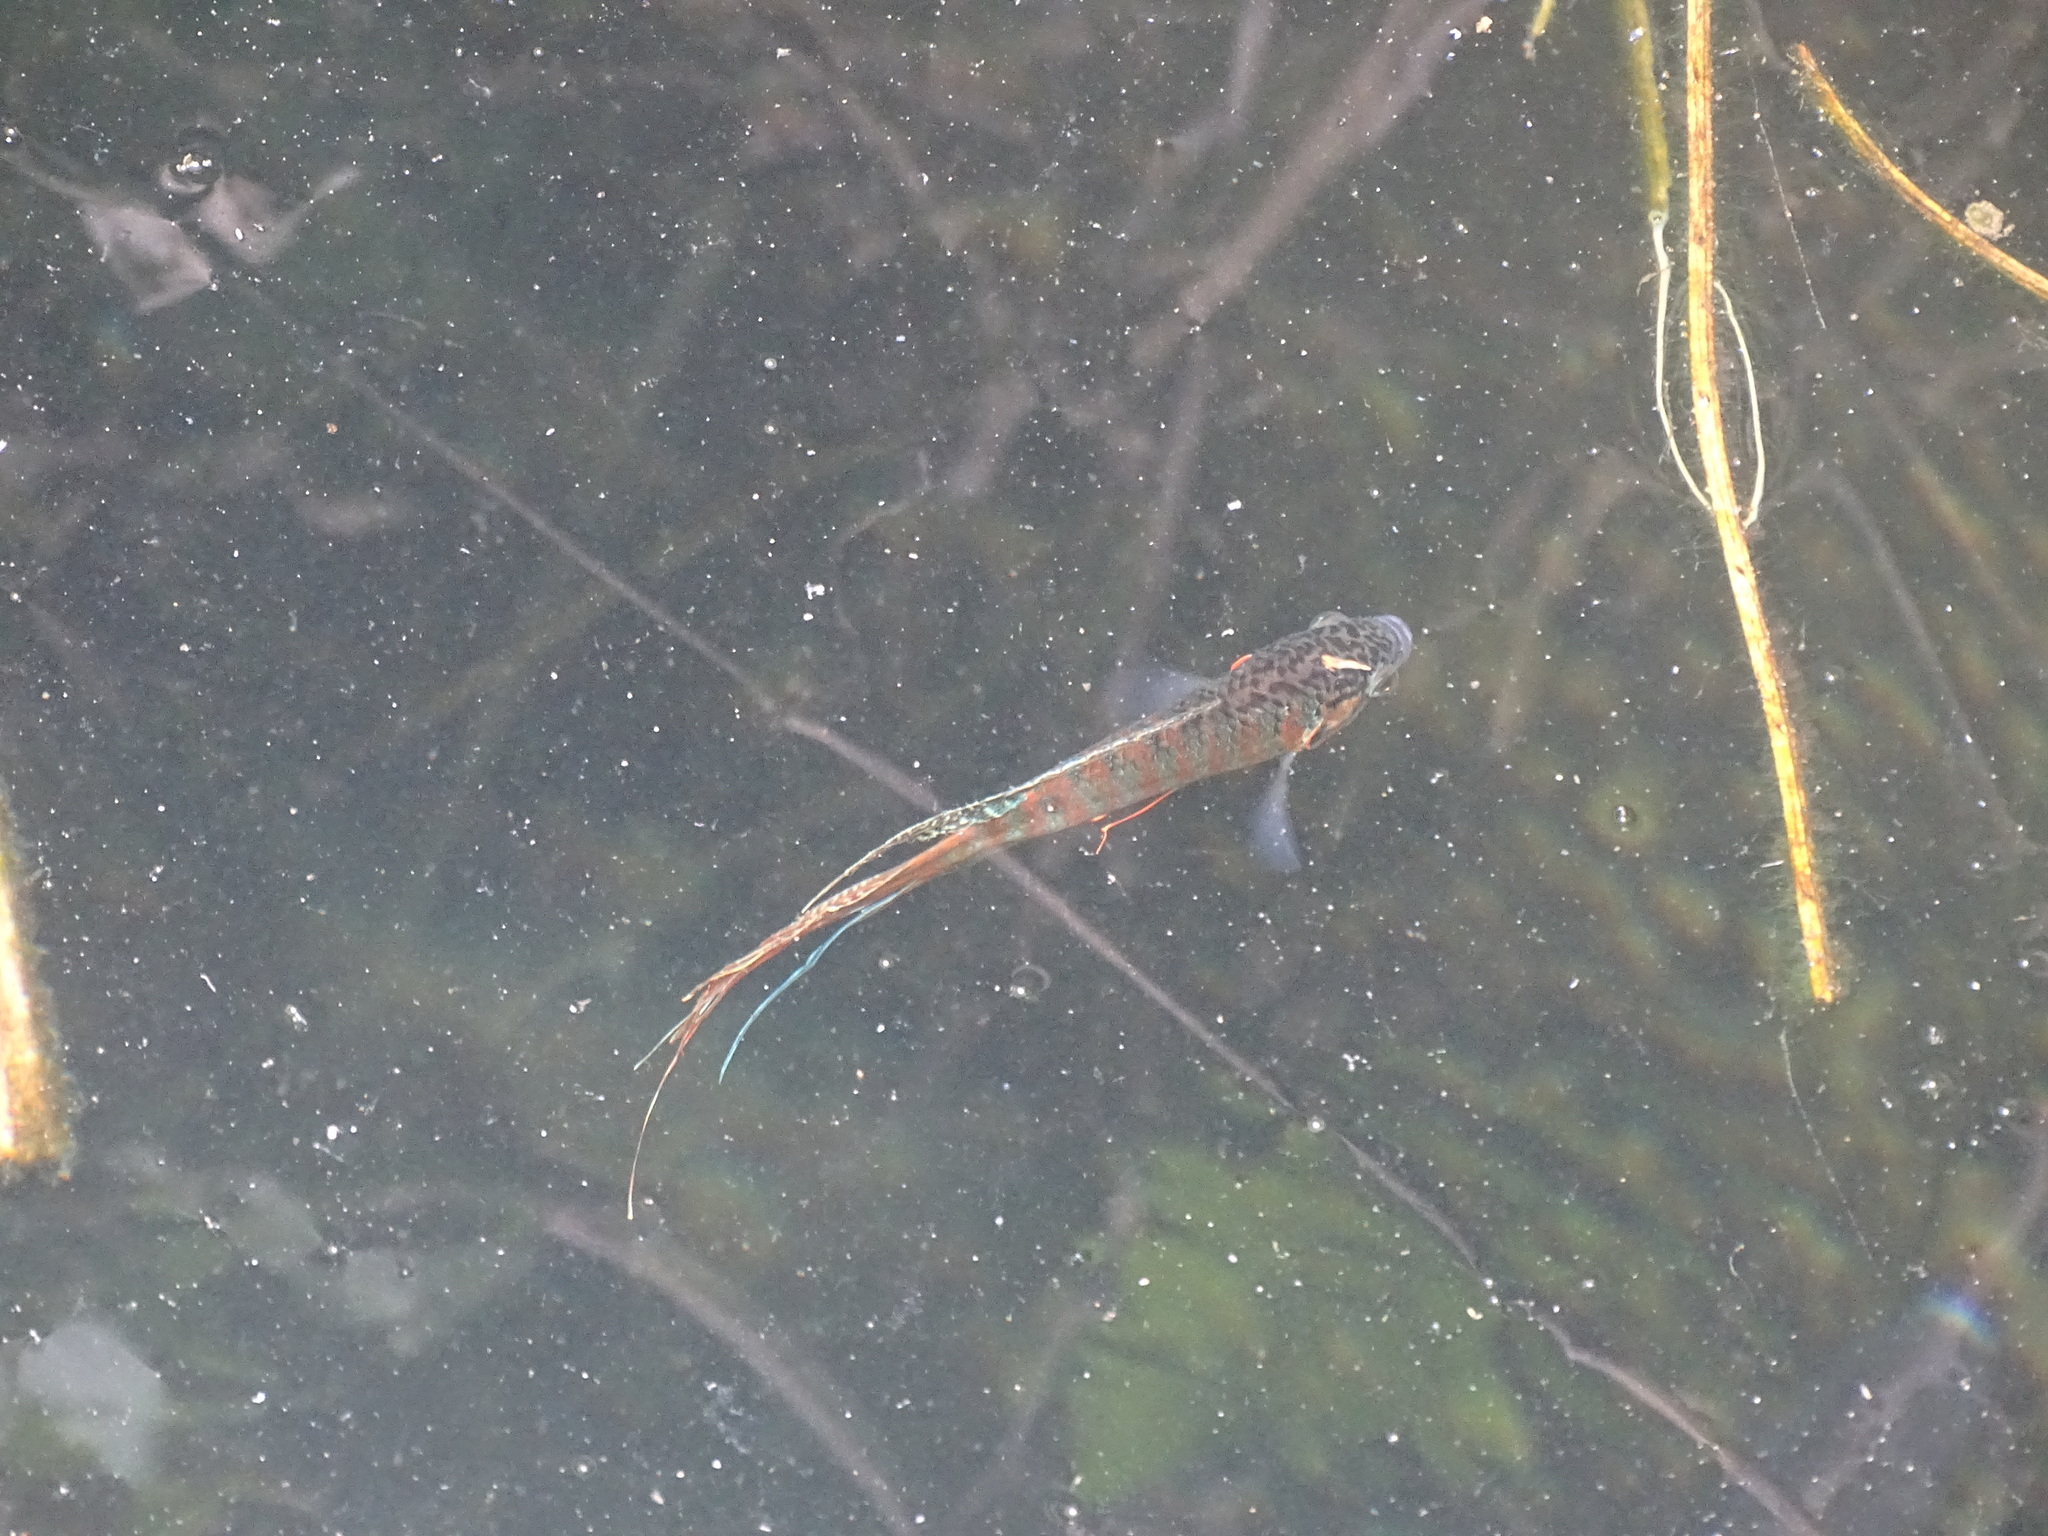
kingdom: Animalia
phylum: Chordata
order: Perciformes
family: Osphronemidae
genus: Macropodus
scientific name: Macropodus opercularis
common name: Paradise fish
